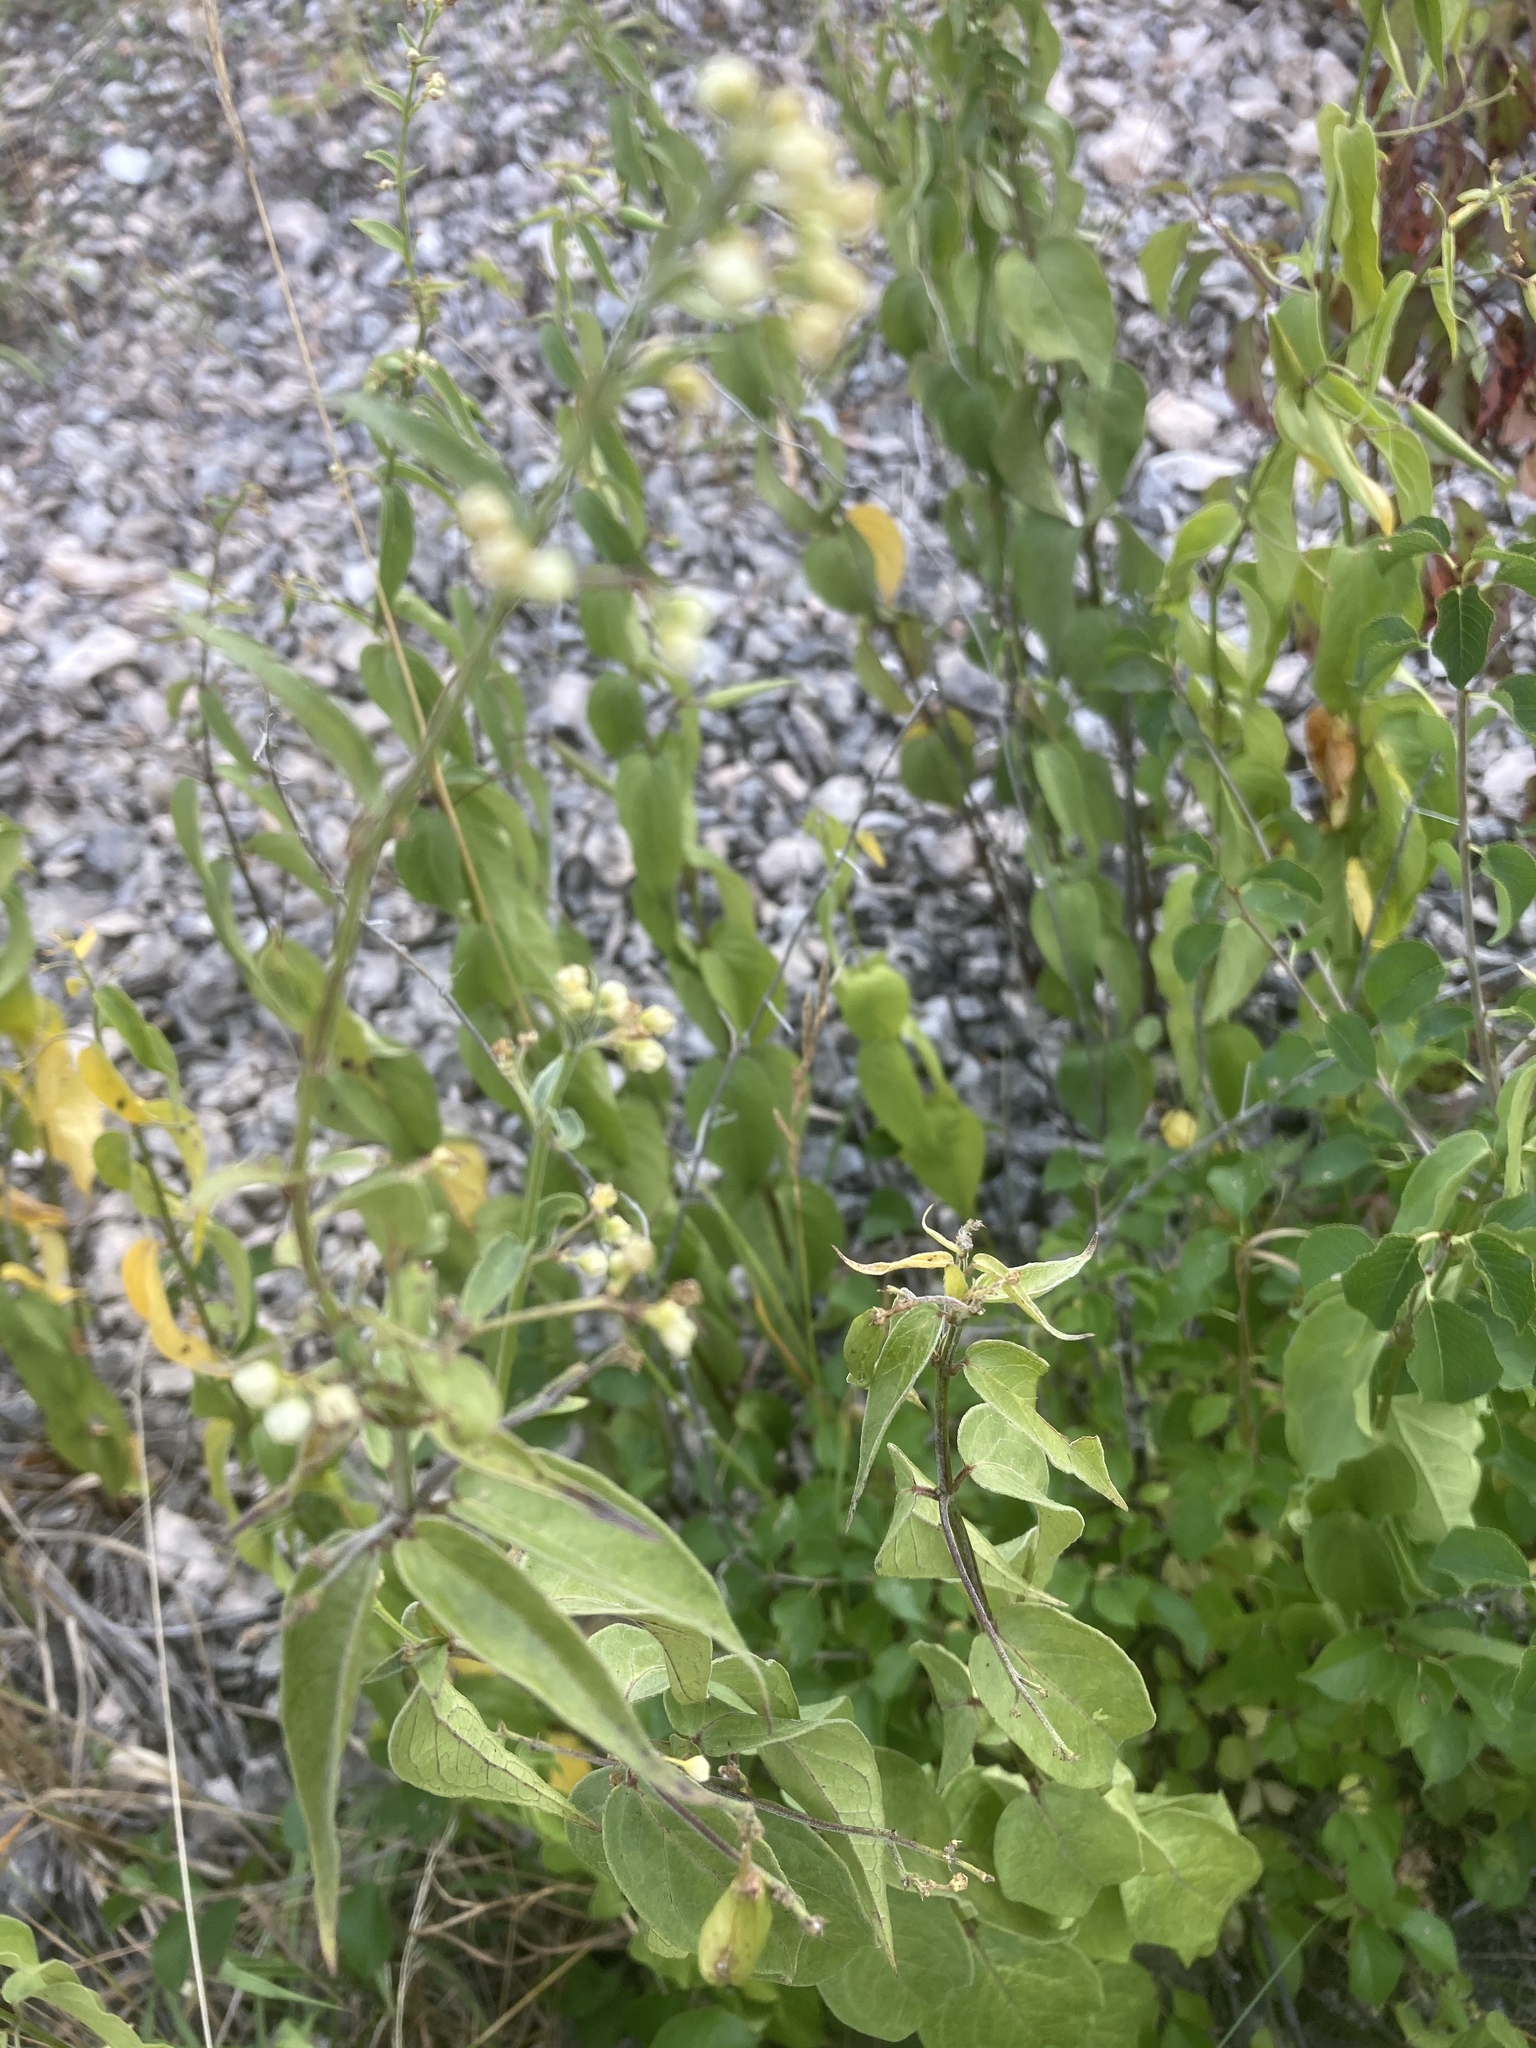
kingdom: Plantae
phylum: Tracheophyta
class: Magnoliopsida
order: Gentianales
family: Apocynaceae
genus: Vincetoxicum
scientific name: Vincetoxicum hirundinaria
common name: White swallowwort
